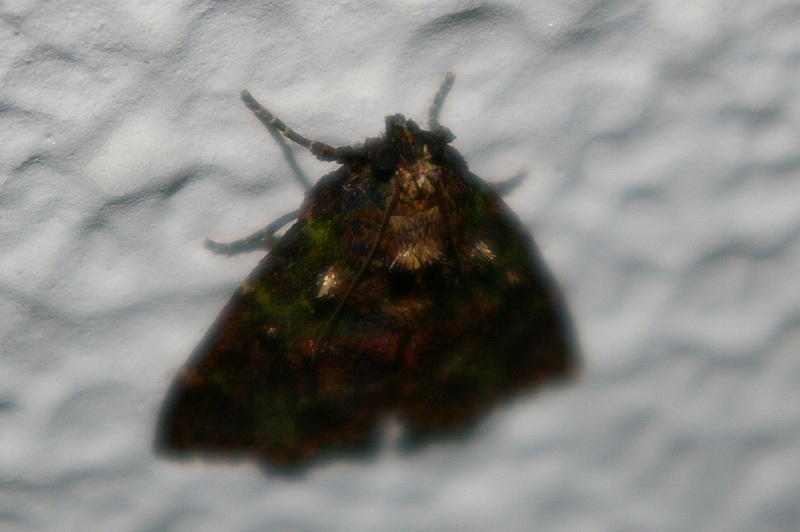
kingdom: Animalia
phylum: Arthropoda
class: Insecta
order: Lepidoptera
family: Pyralidae
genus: Orthaga
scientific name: Orthaga olivacea
